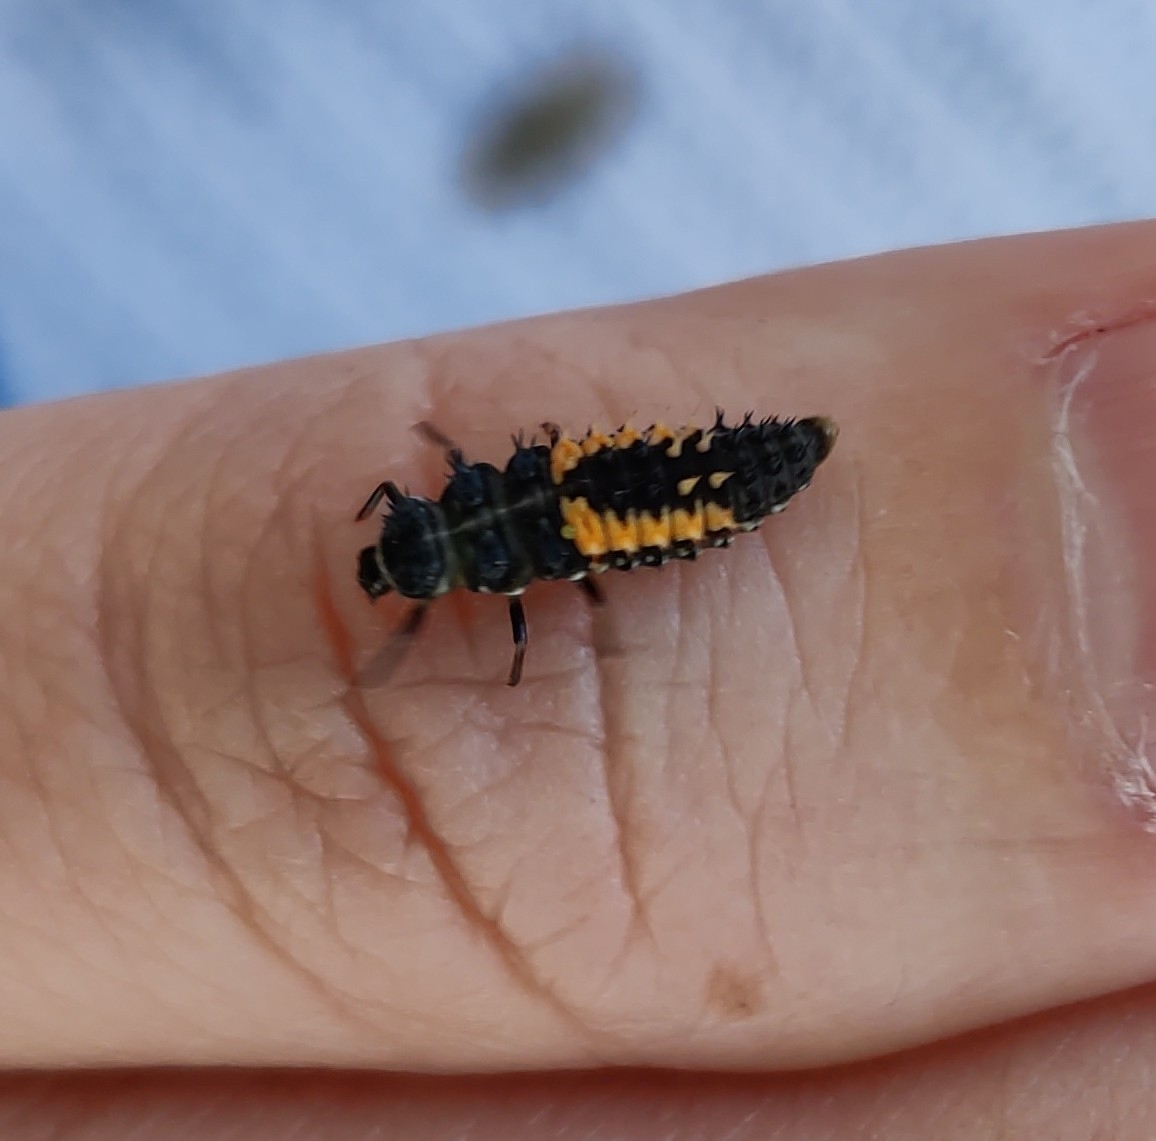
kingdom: Animalia
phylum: Arthropoda
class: Insecta
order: Coleoptera
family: Coccinellidae
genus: Harmonia
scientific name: Harmonia axyridis
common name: Harlequin ladybird
